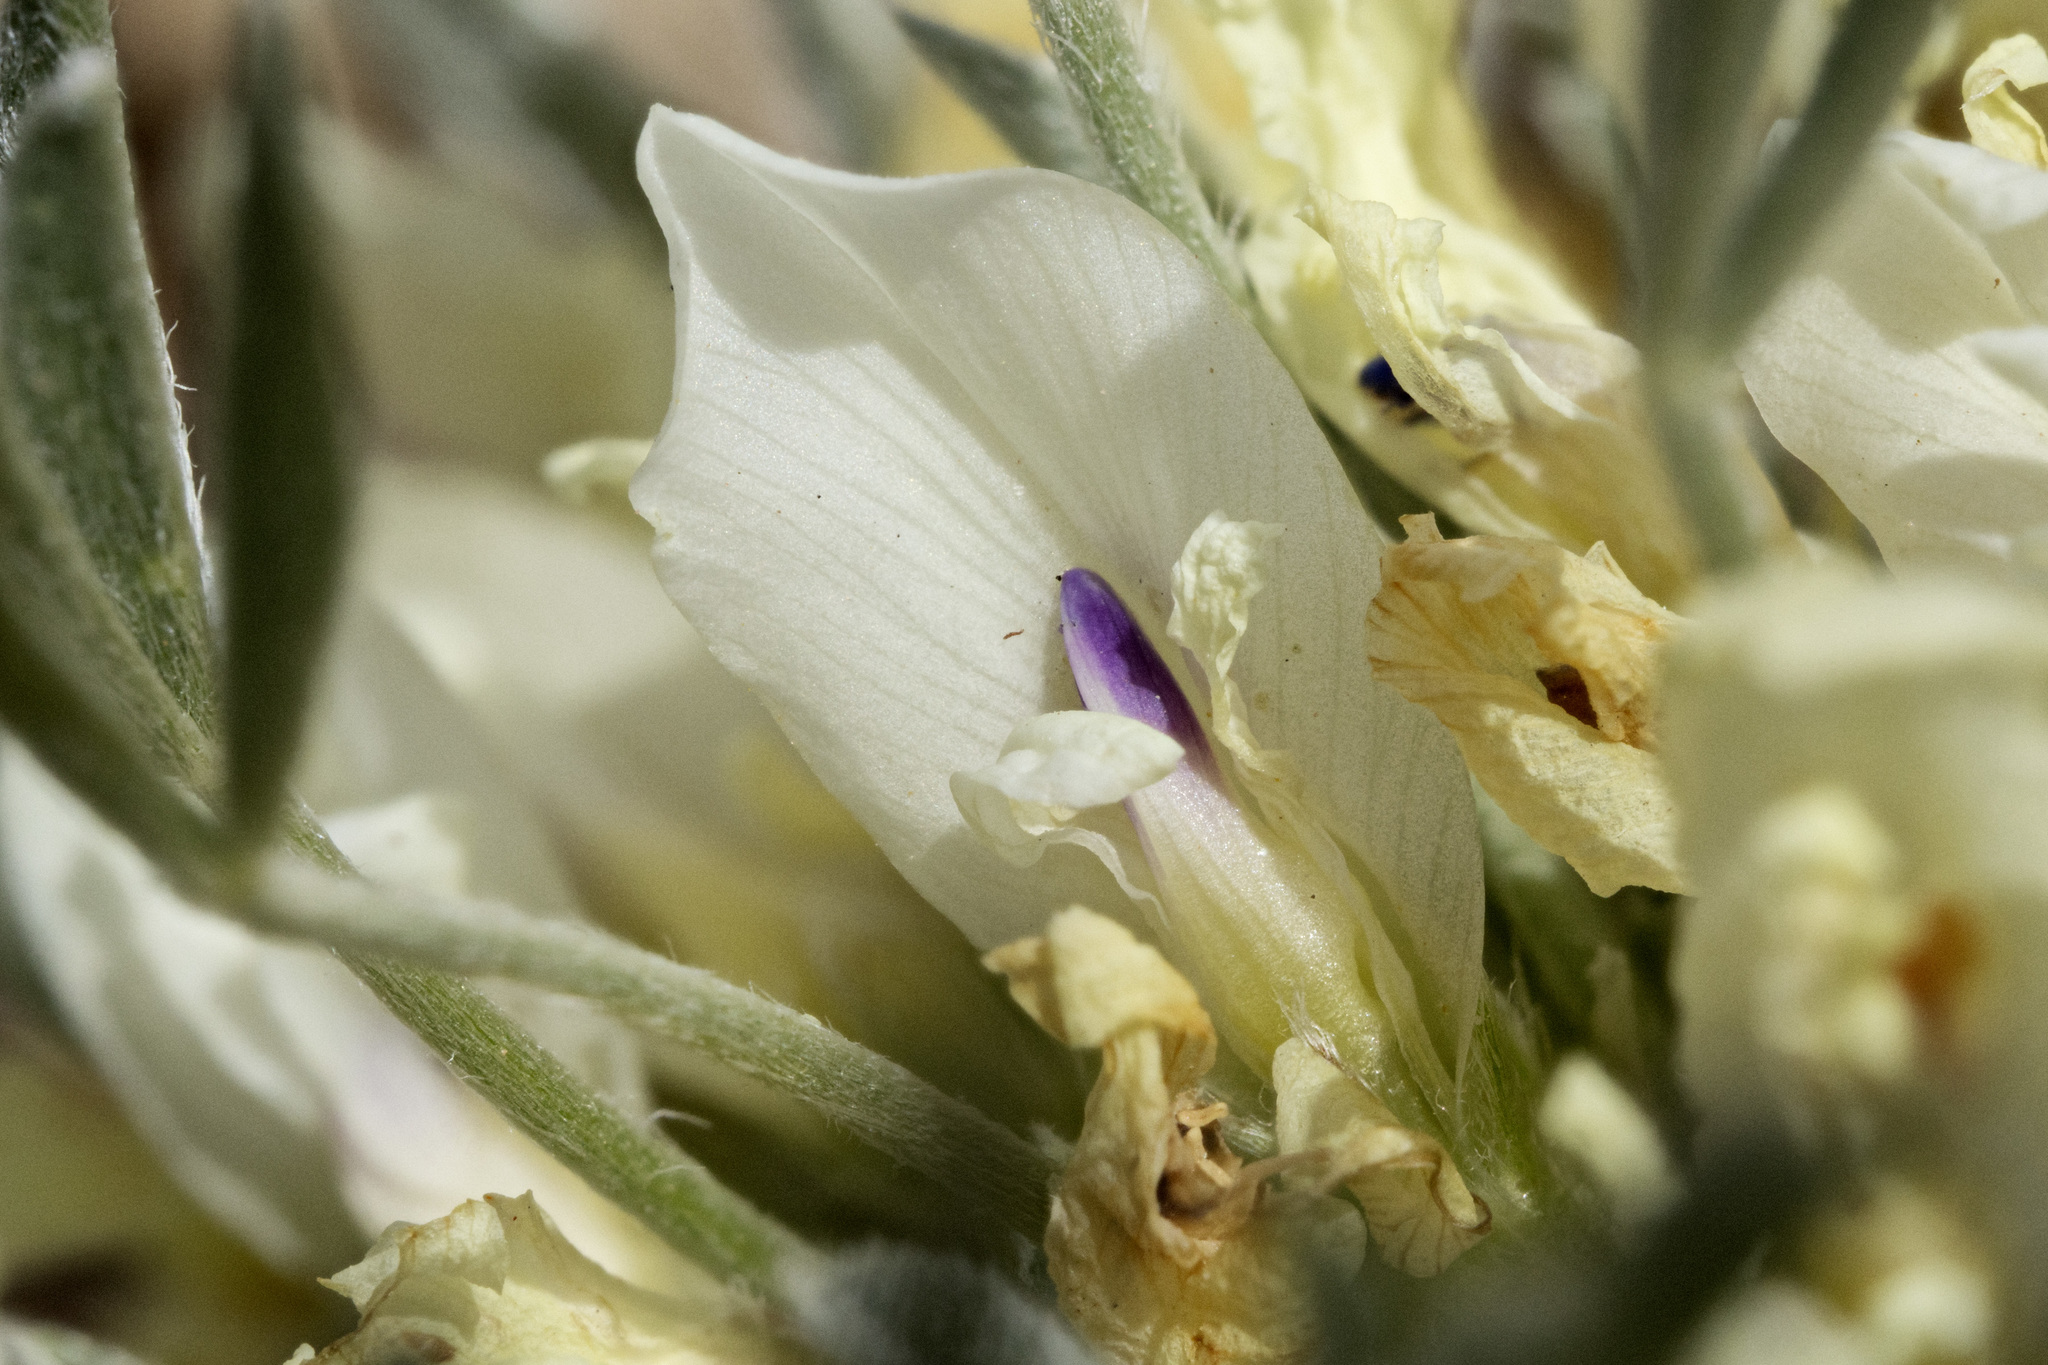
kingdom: Plantae
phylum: Tracheophyta
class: Magnoliopsida
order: Fabales
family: Fabaceae
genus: Astragalus
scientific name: Astragalus gilviflorus
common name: Cushion milk-vetch
